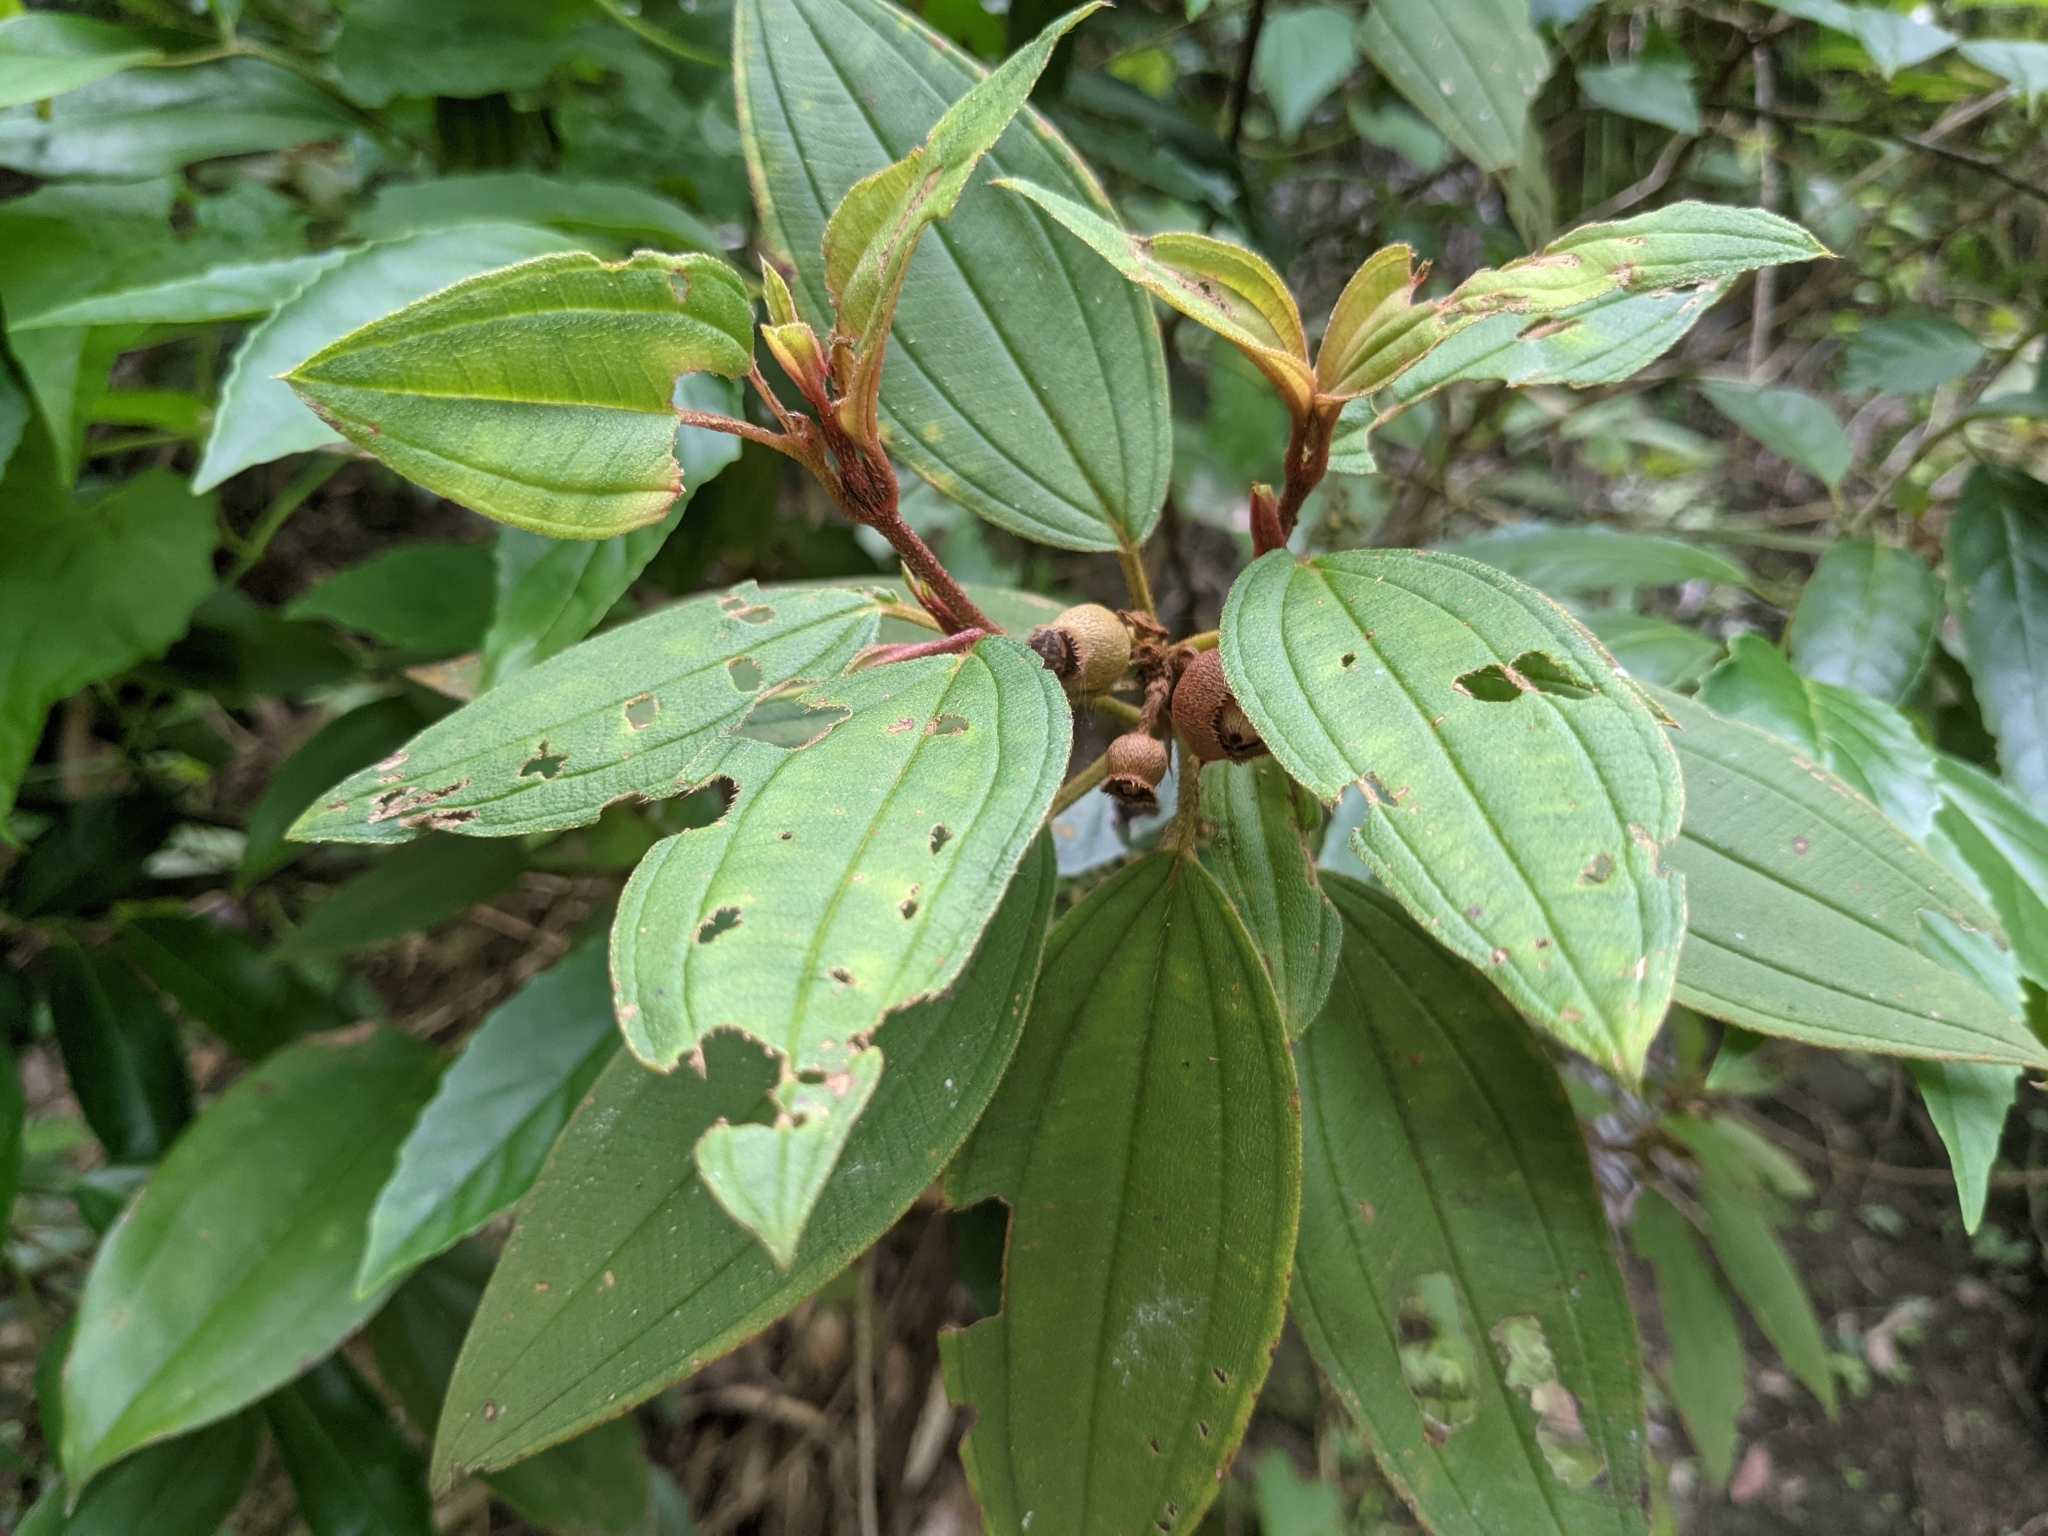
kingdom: Plantae
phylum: Tracheophyta
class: Magnoliopsida
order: Myrtales
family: Melastomataceae
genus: Melastoma
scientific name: Melastoma malabathricum
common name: Indian-rhododendron
